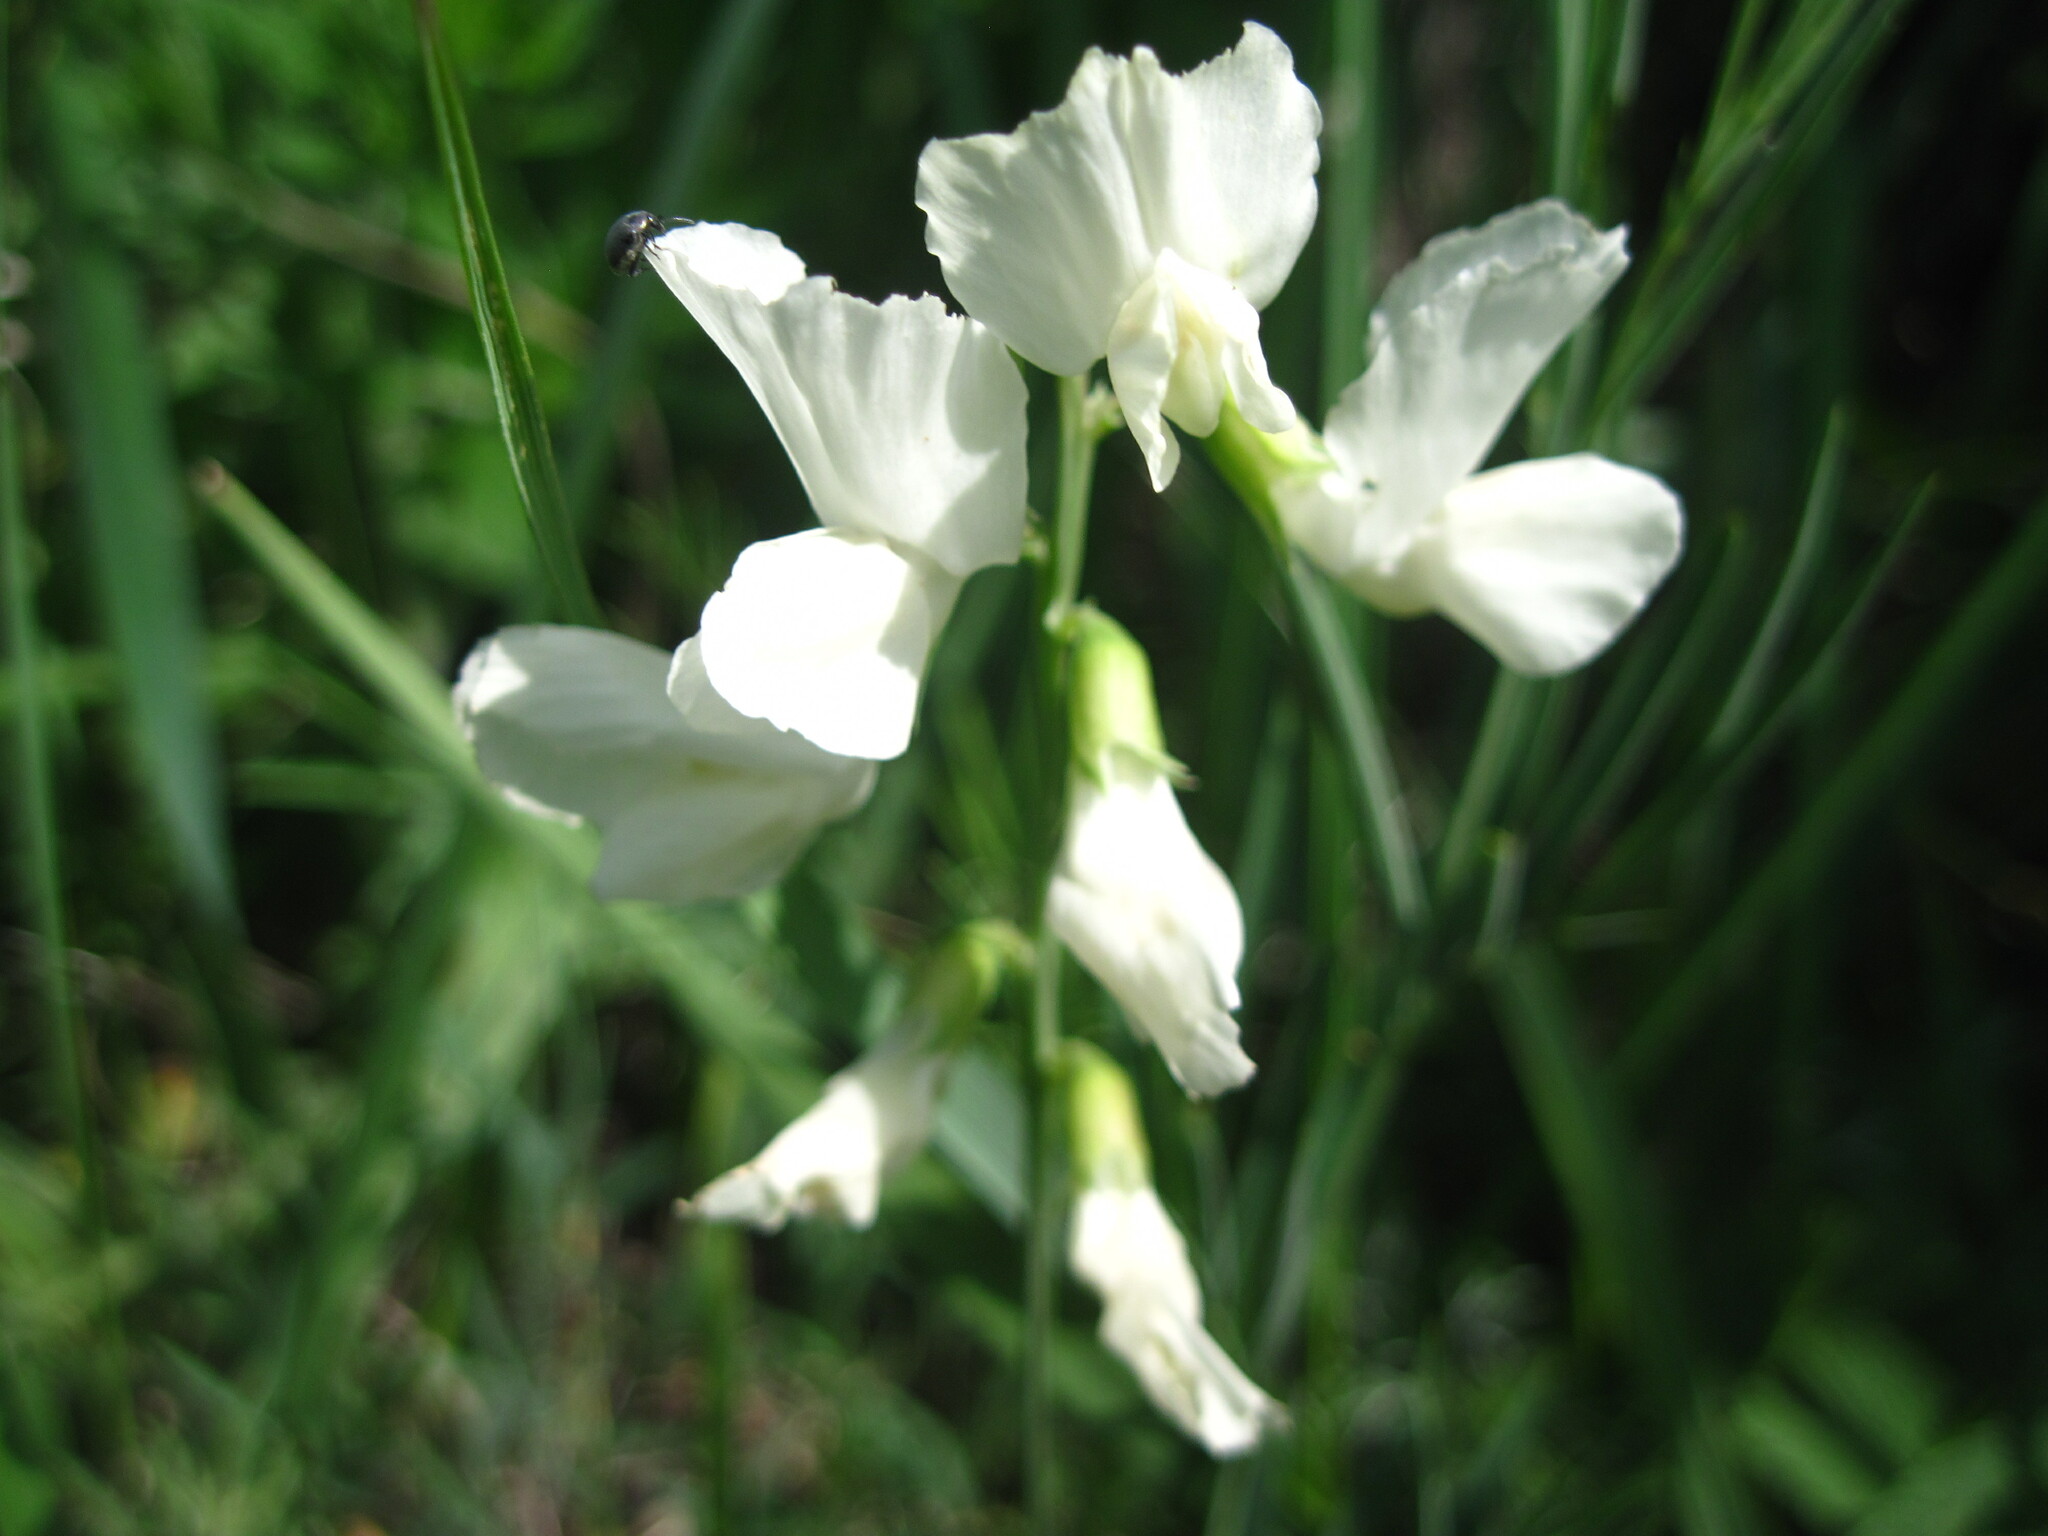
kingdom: Plantae
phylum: Tracheophyta
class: Magnoliopsida
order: Fabales
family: Fabaceae
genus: Lathyrus
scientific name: Lathyrus pallescens
